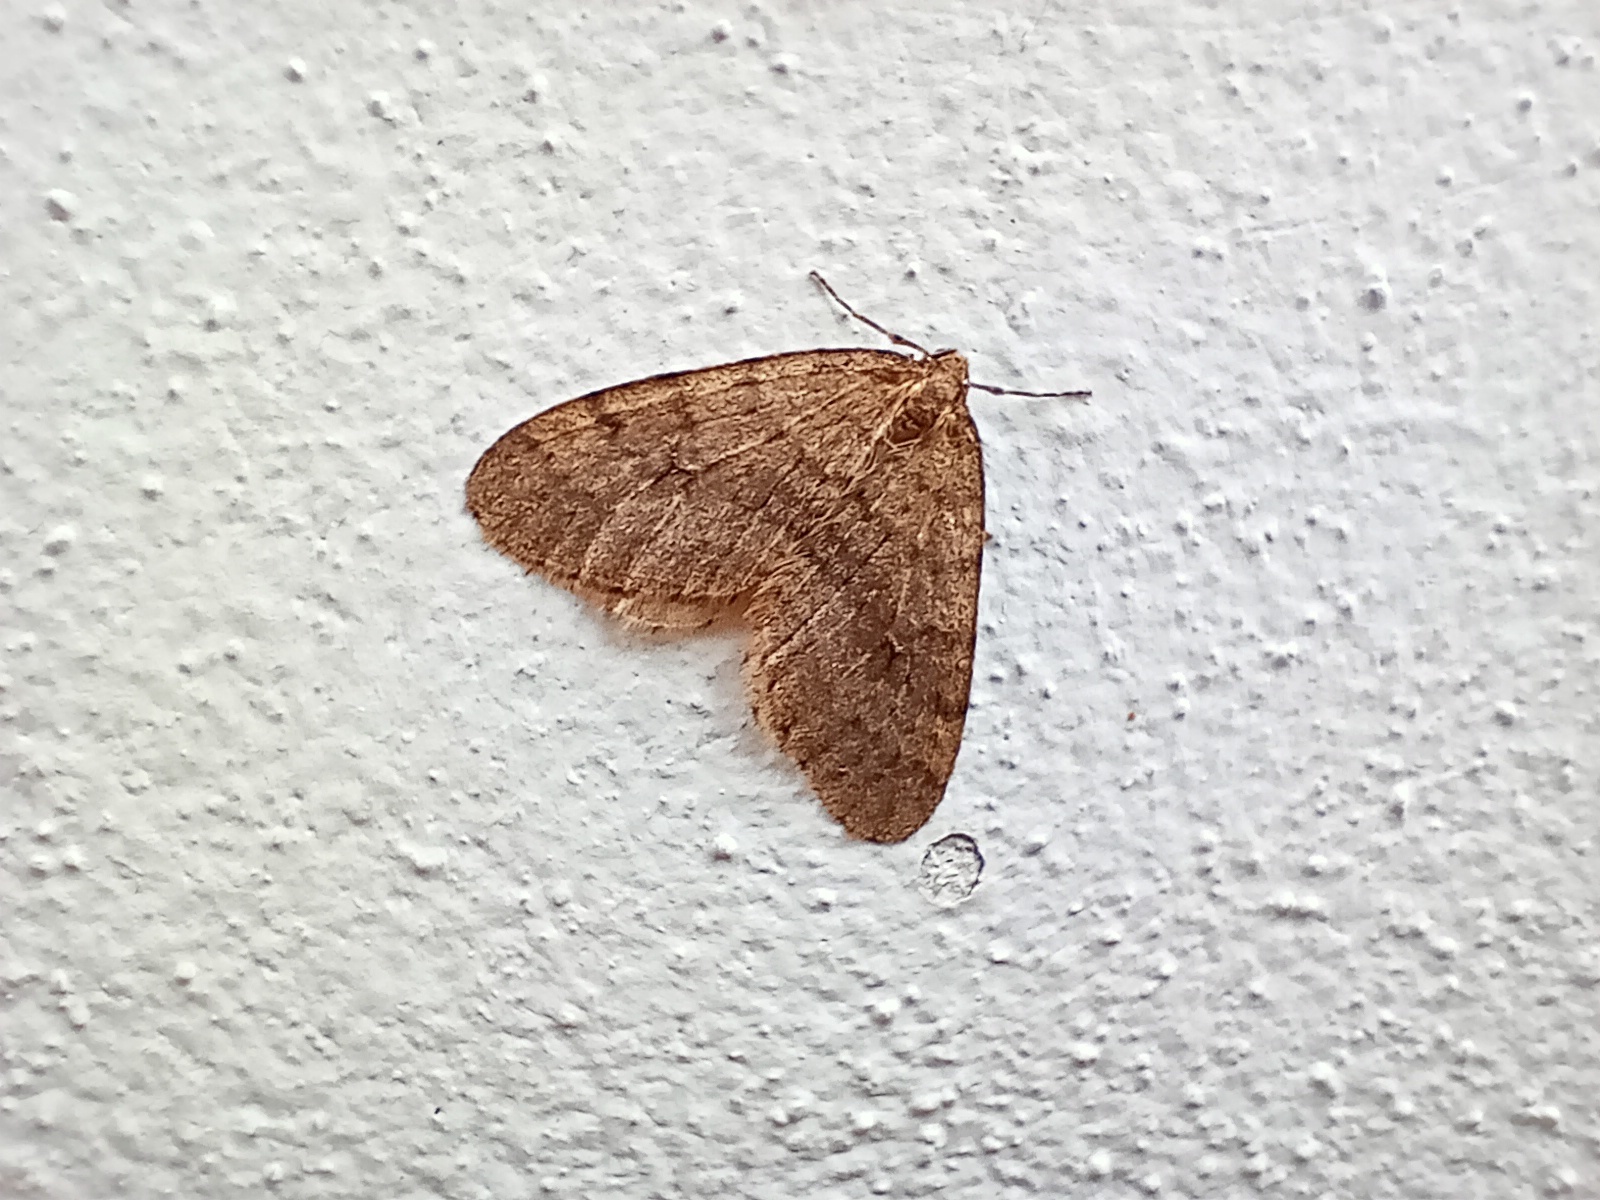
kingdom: Animalia
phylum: Arthropoda
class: Insecta
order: Lepidoptera
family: Geometridae
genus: Operophtera
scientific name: Operophtera brumata
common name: Winter moth
